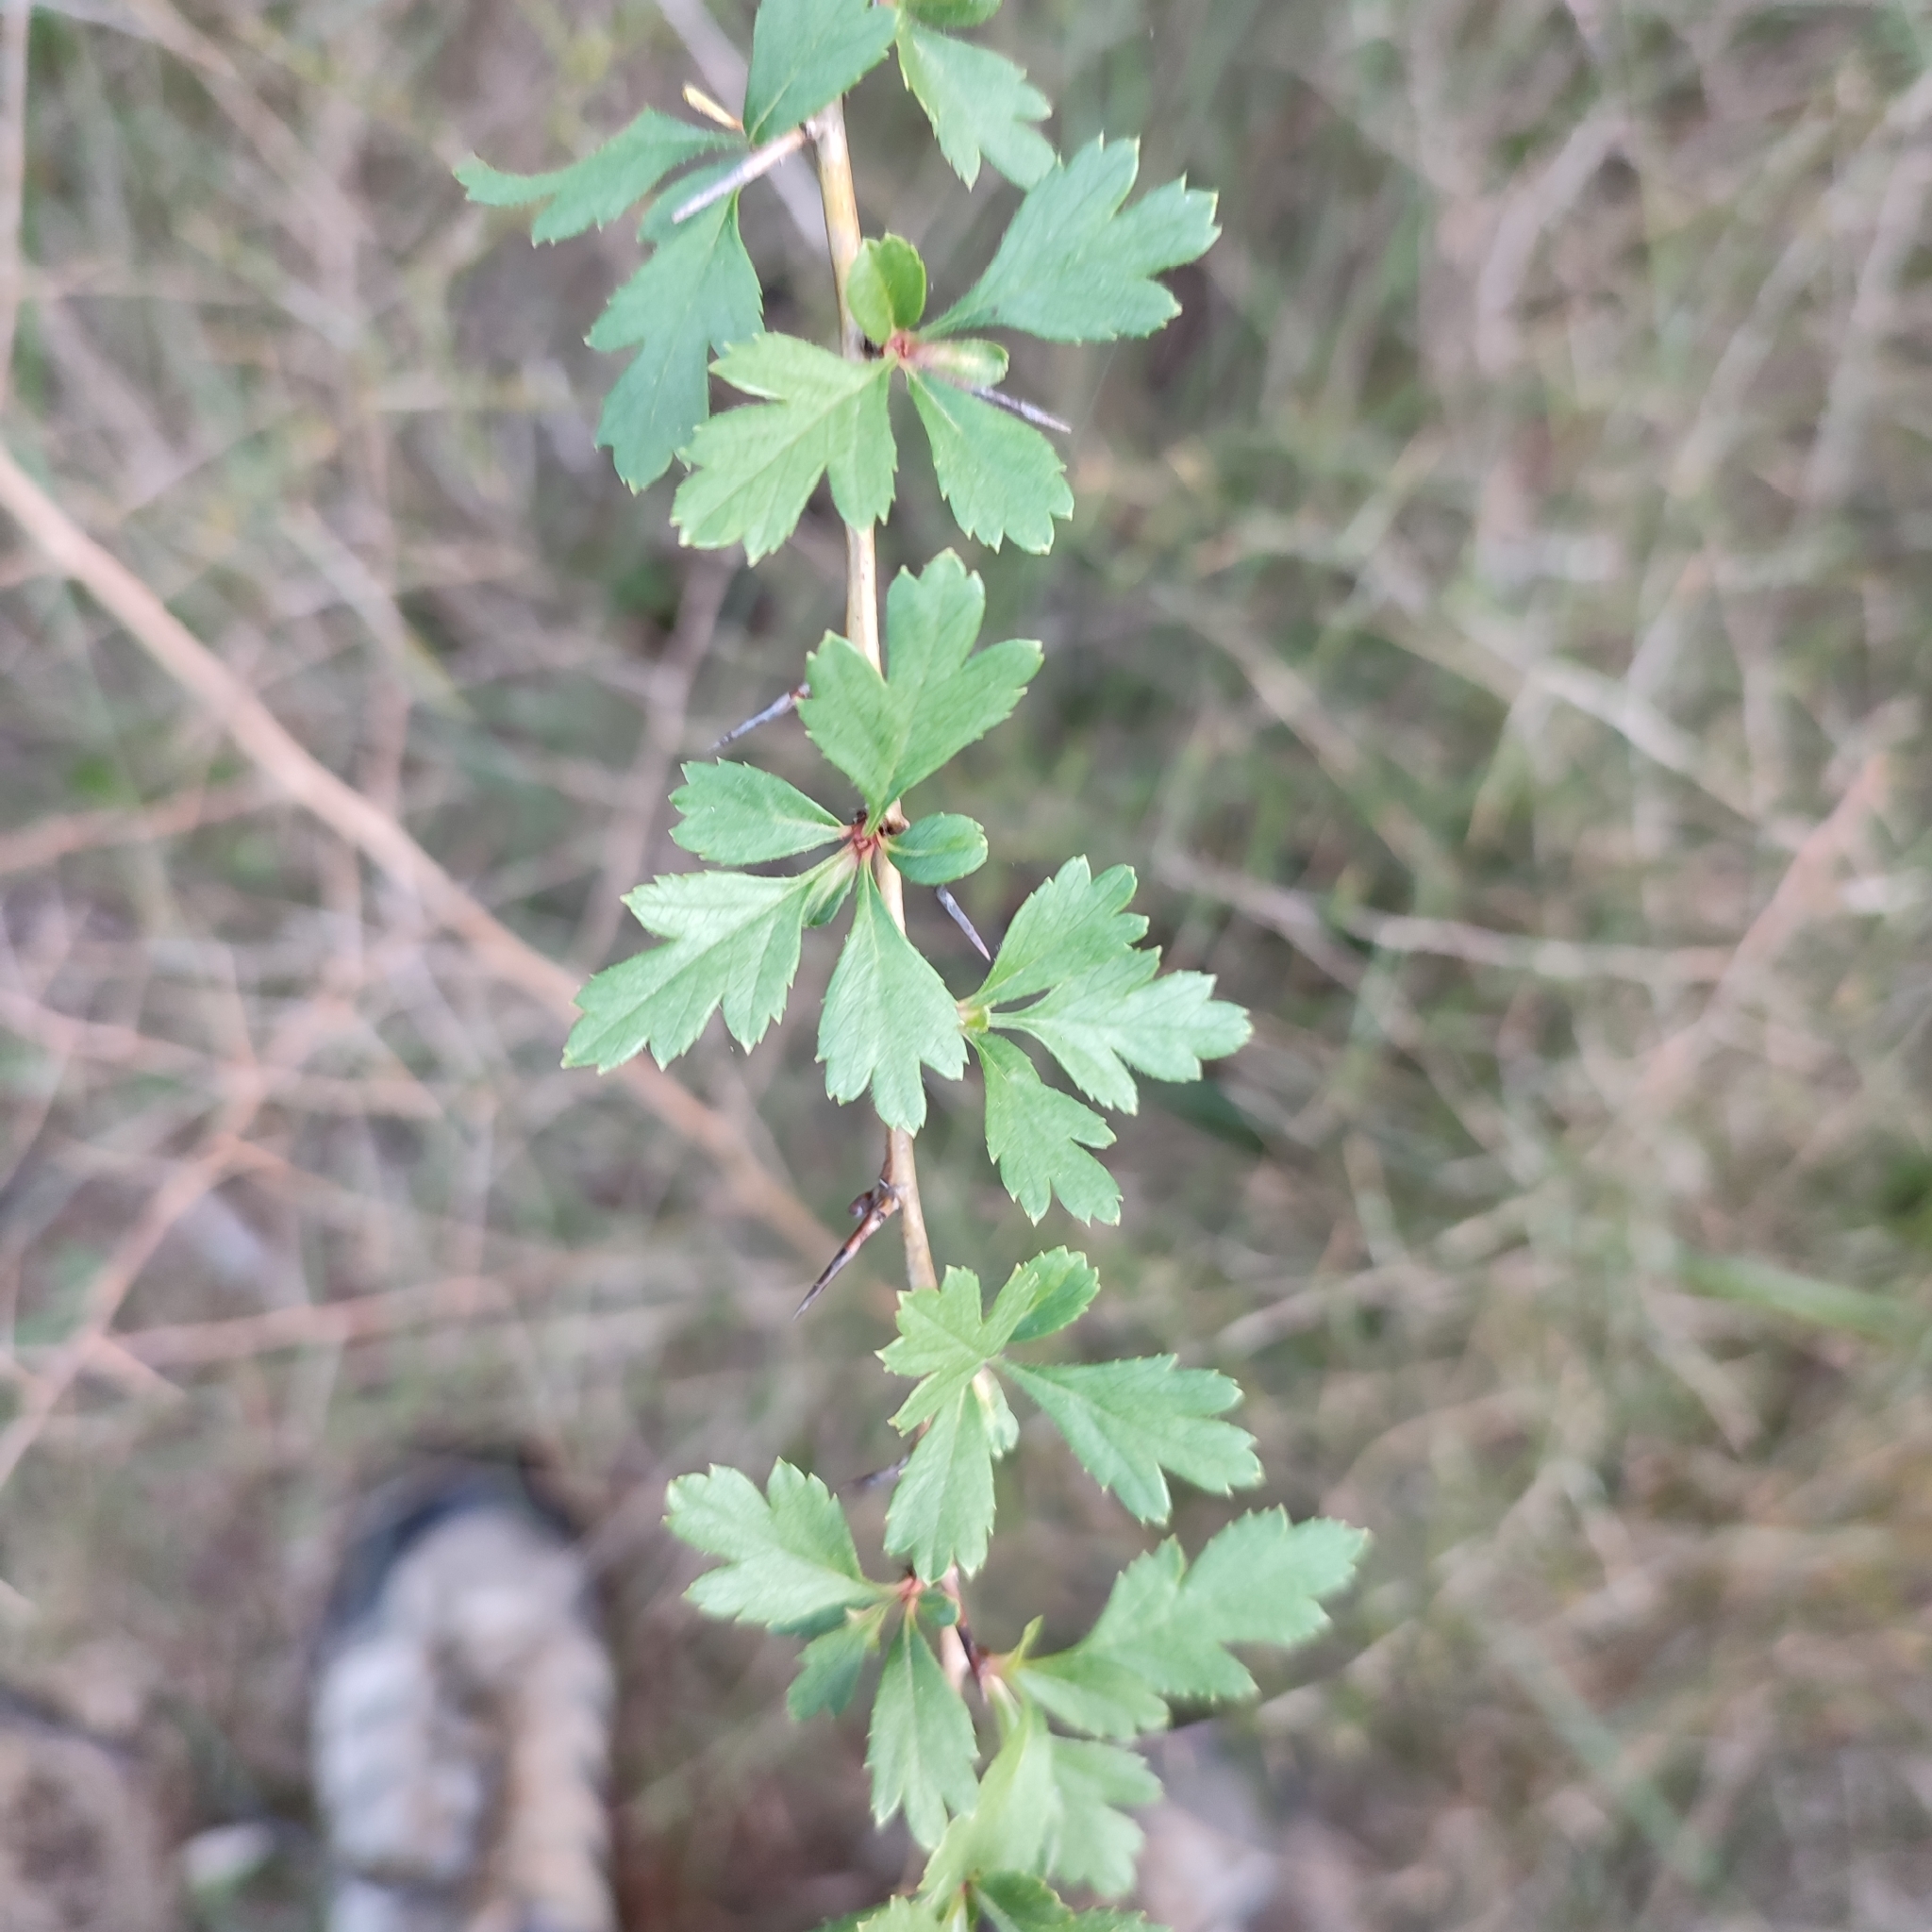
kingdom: Plantae
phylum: Tracheophyta
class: Magnoliopsida
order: Rosales
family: Rosaceae
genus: Crataegus
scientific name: Crataegus monogyna
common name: Hawthorn
